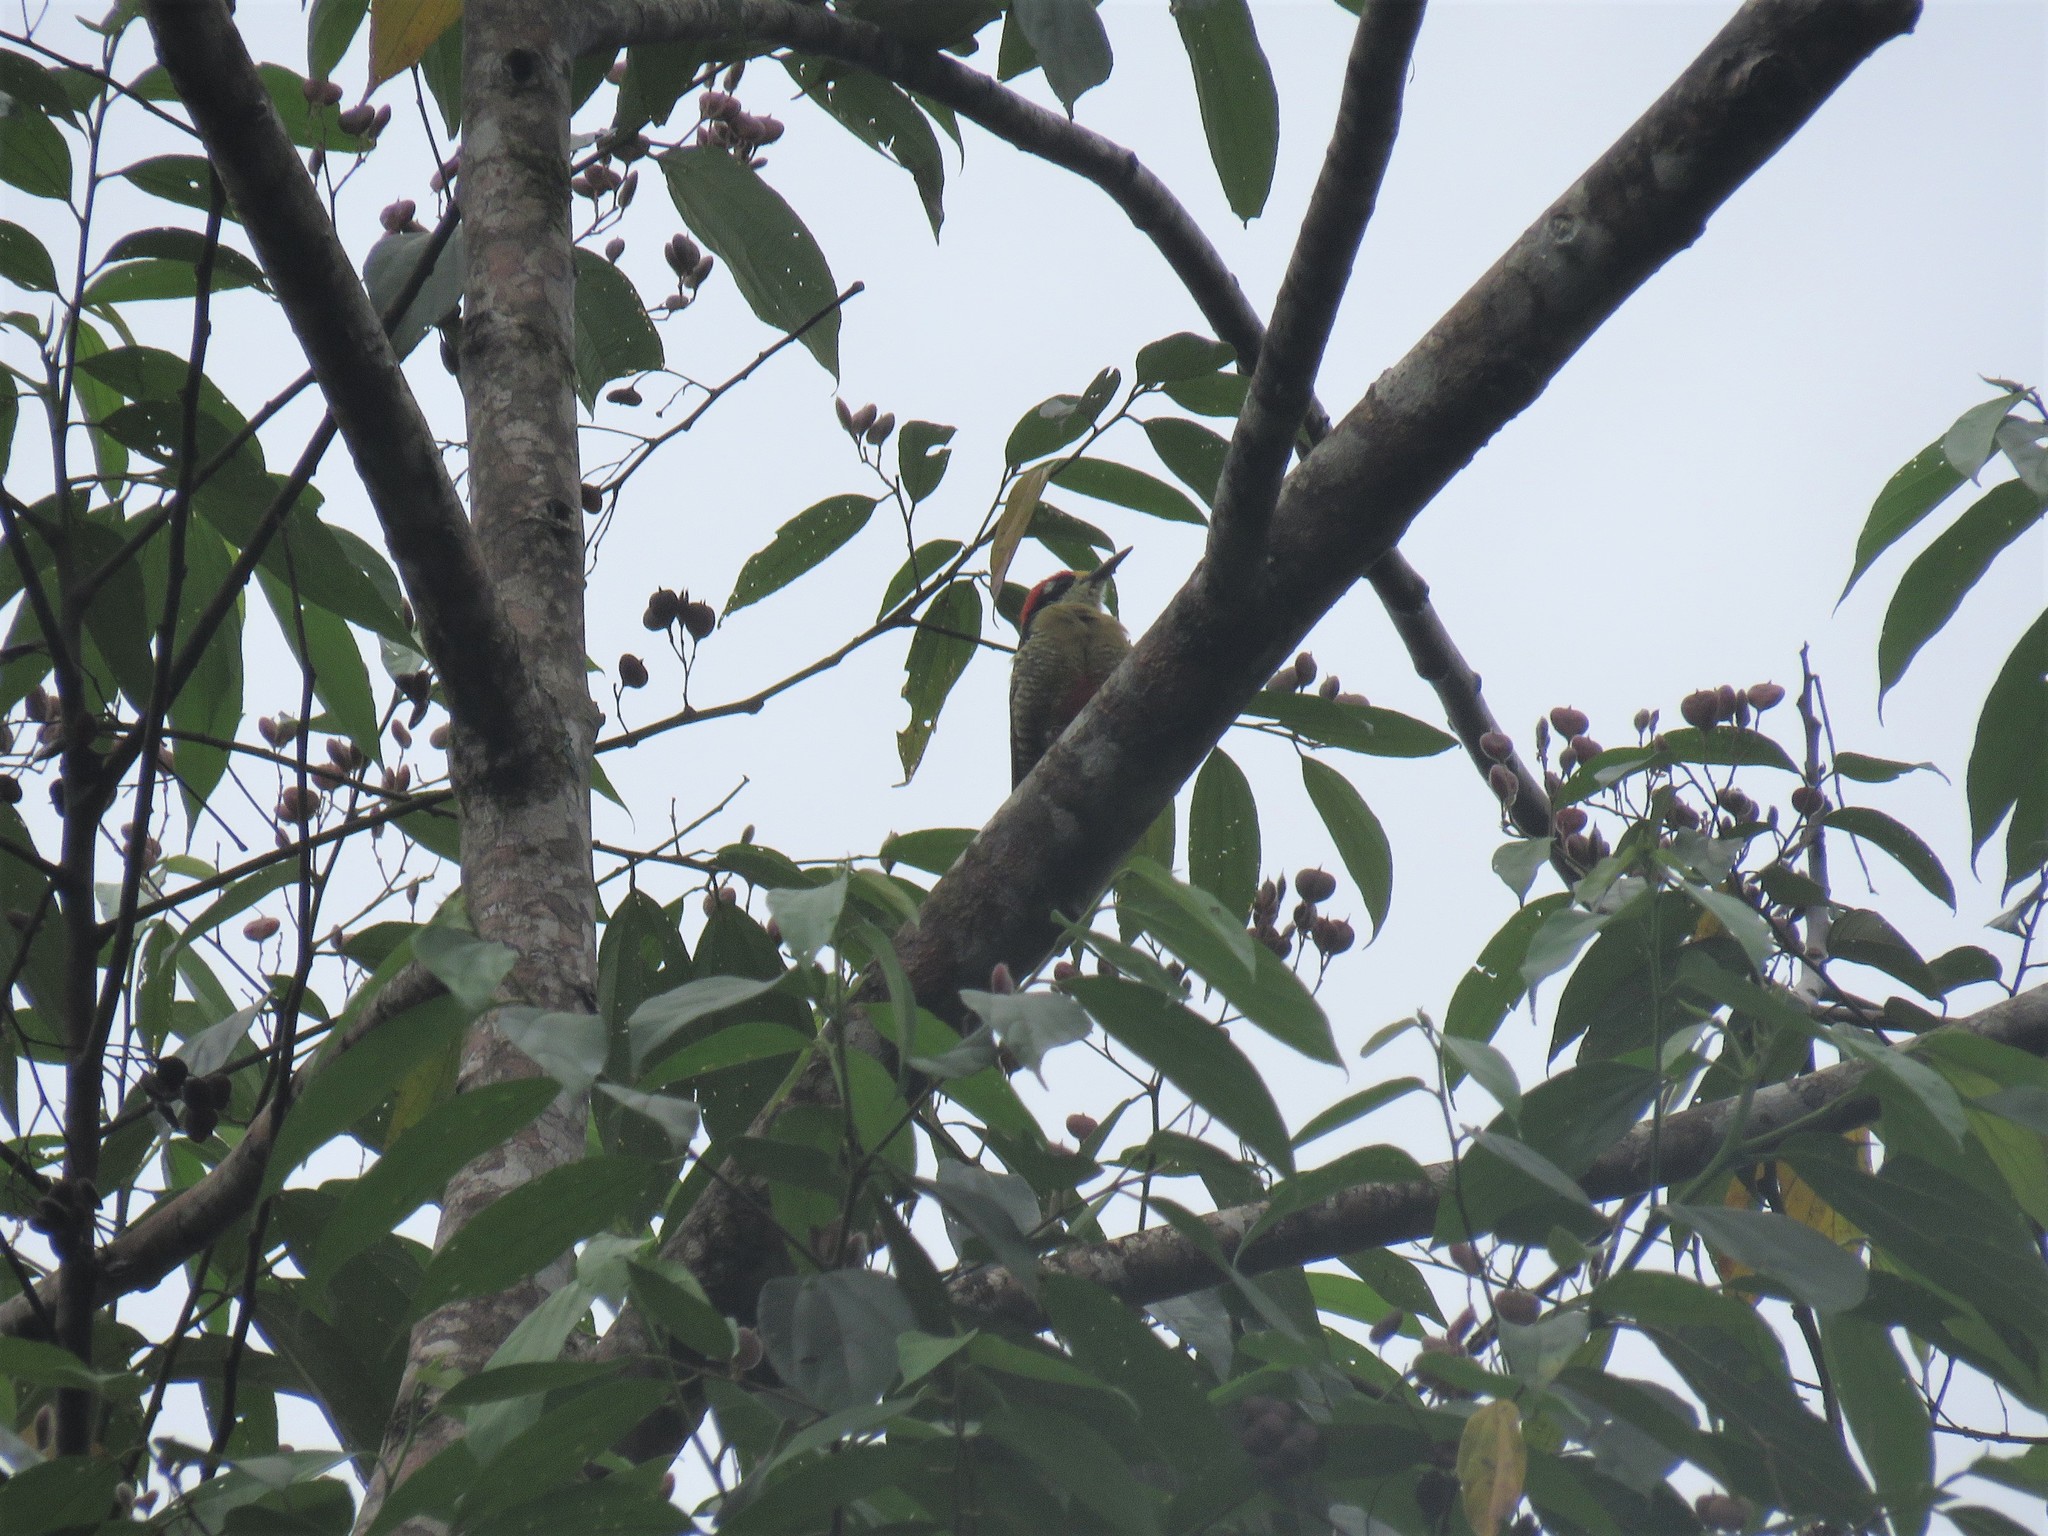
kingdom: Animalia
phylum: Chordata
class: Aves
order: Piciformes
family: Picidae
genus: Melanerpes
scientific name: Melanerpes pucherani
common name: Black-cheeked woodpecker
